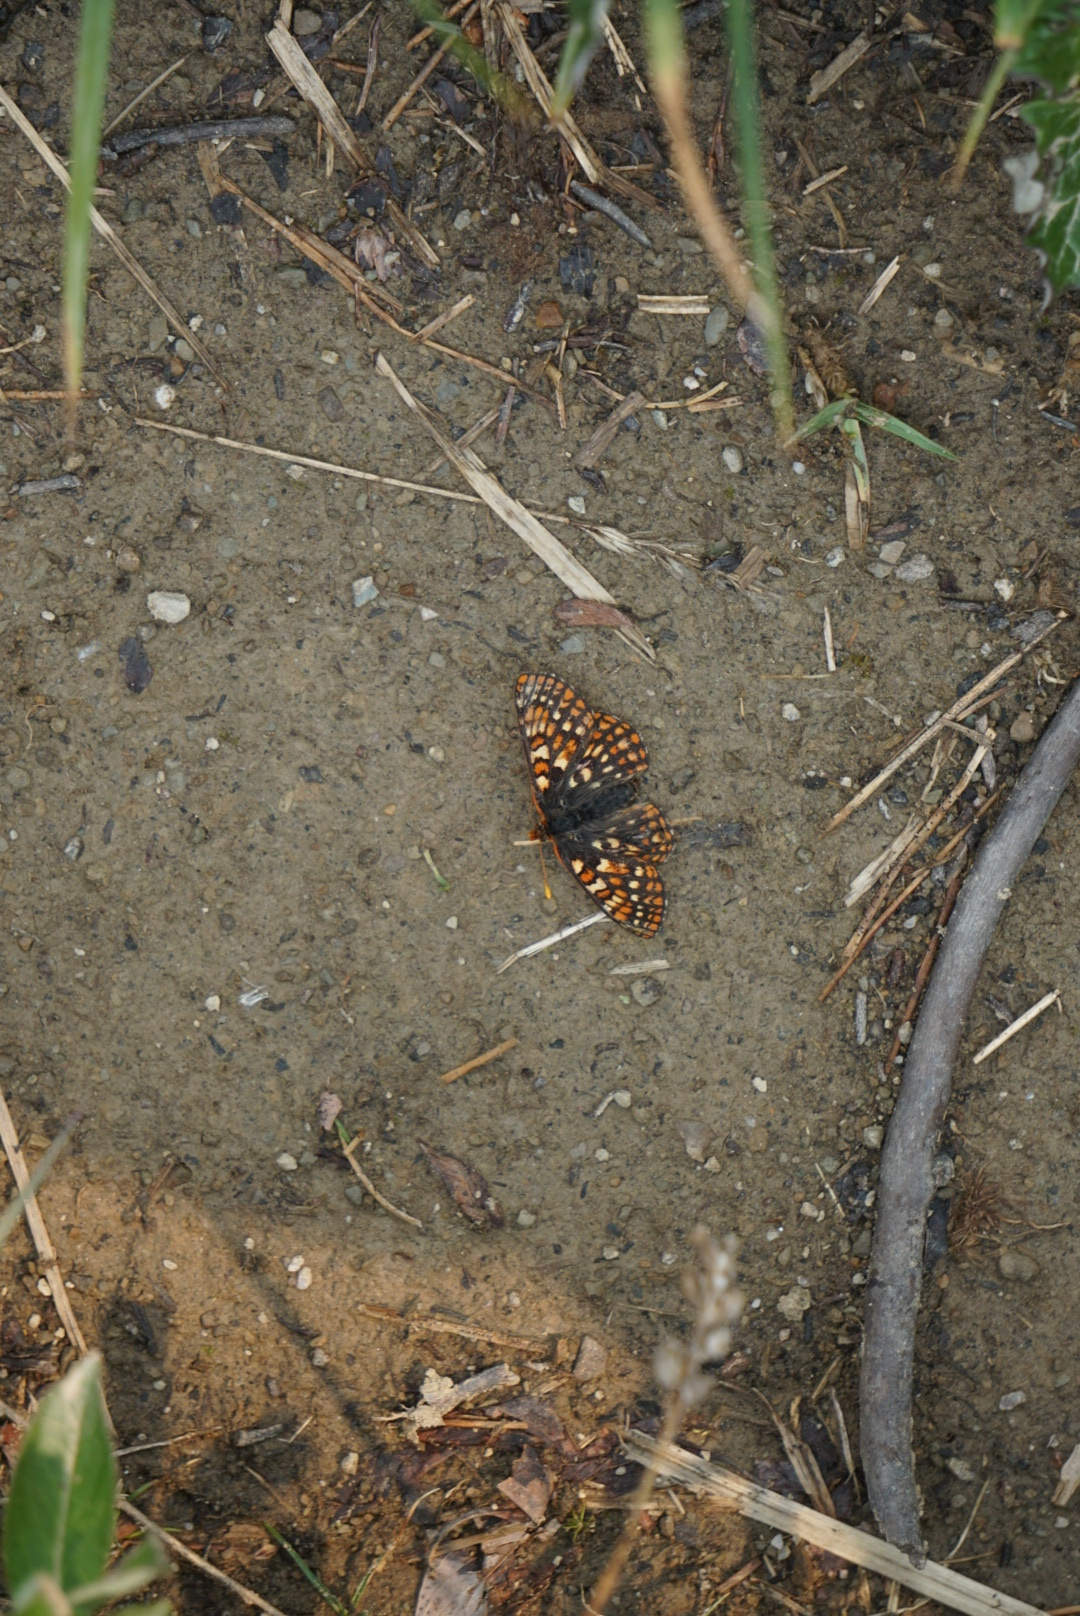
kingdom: Animalia
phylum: Arthropoda
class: Insecta
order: Lepidoptera
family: Nymphalidae
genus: Occidryas
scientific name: Occidryas anicia
